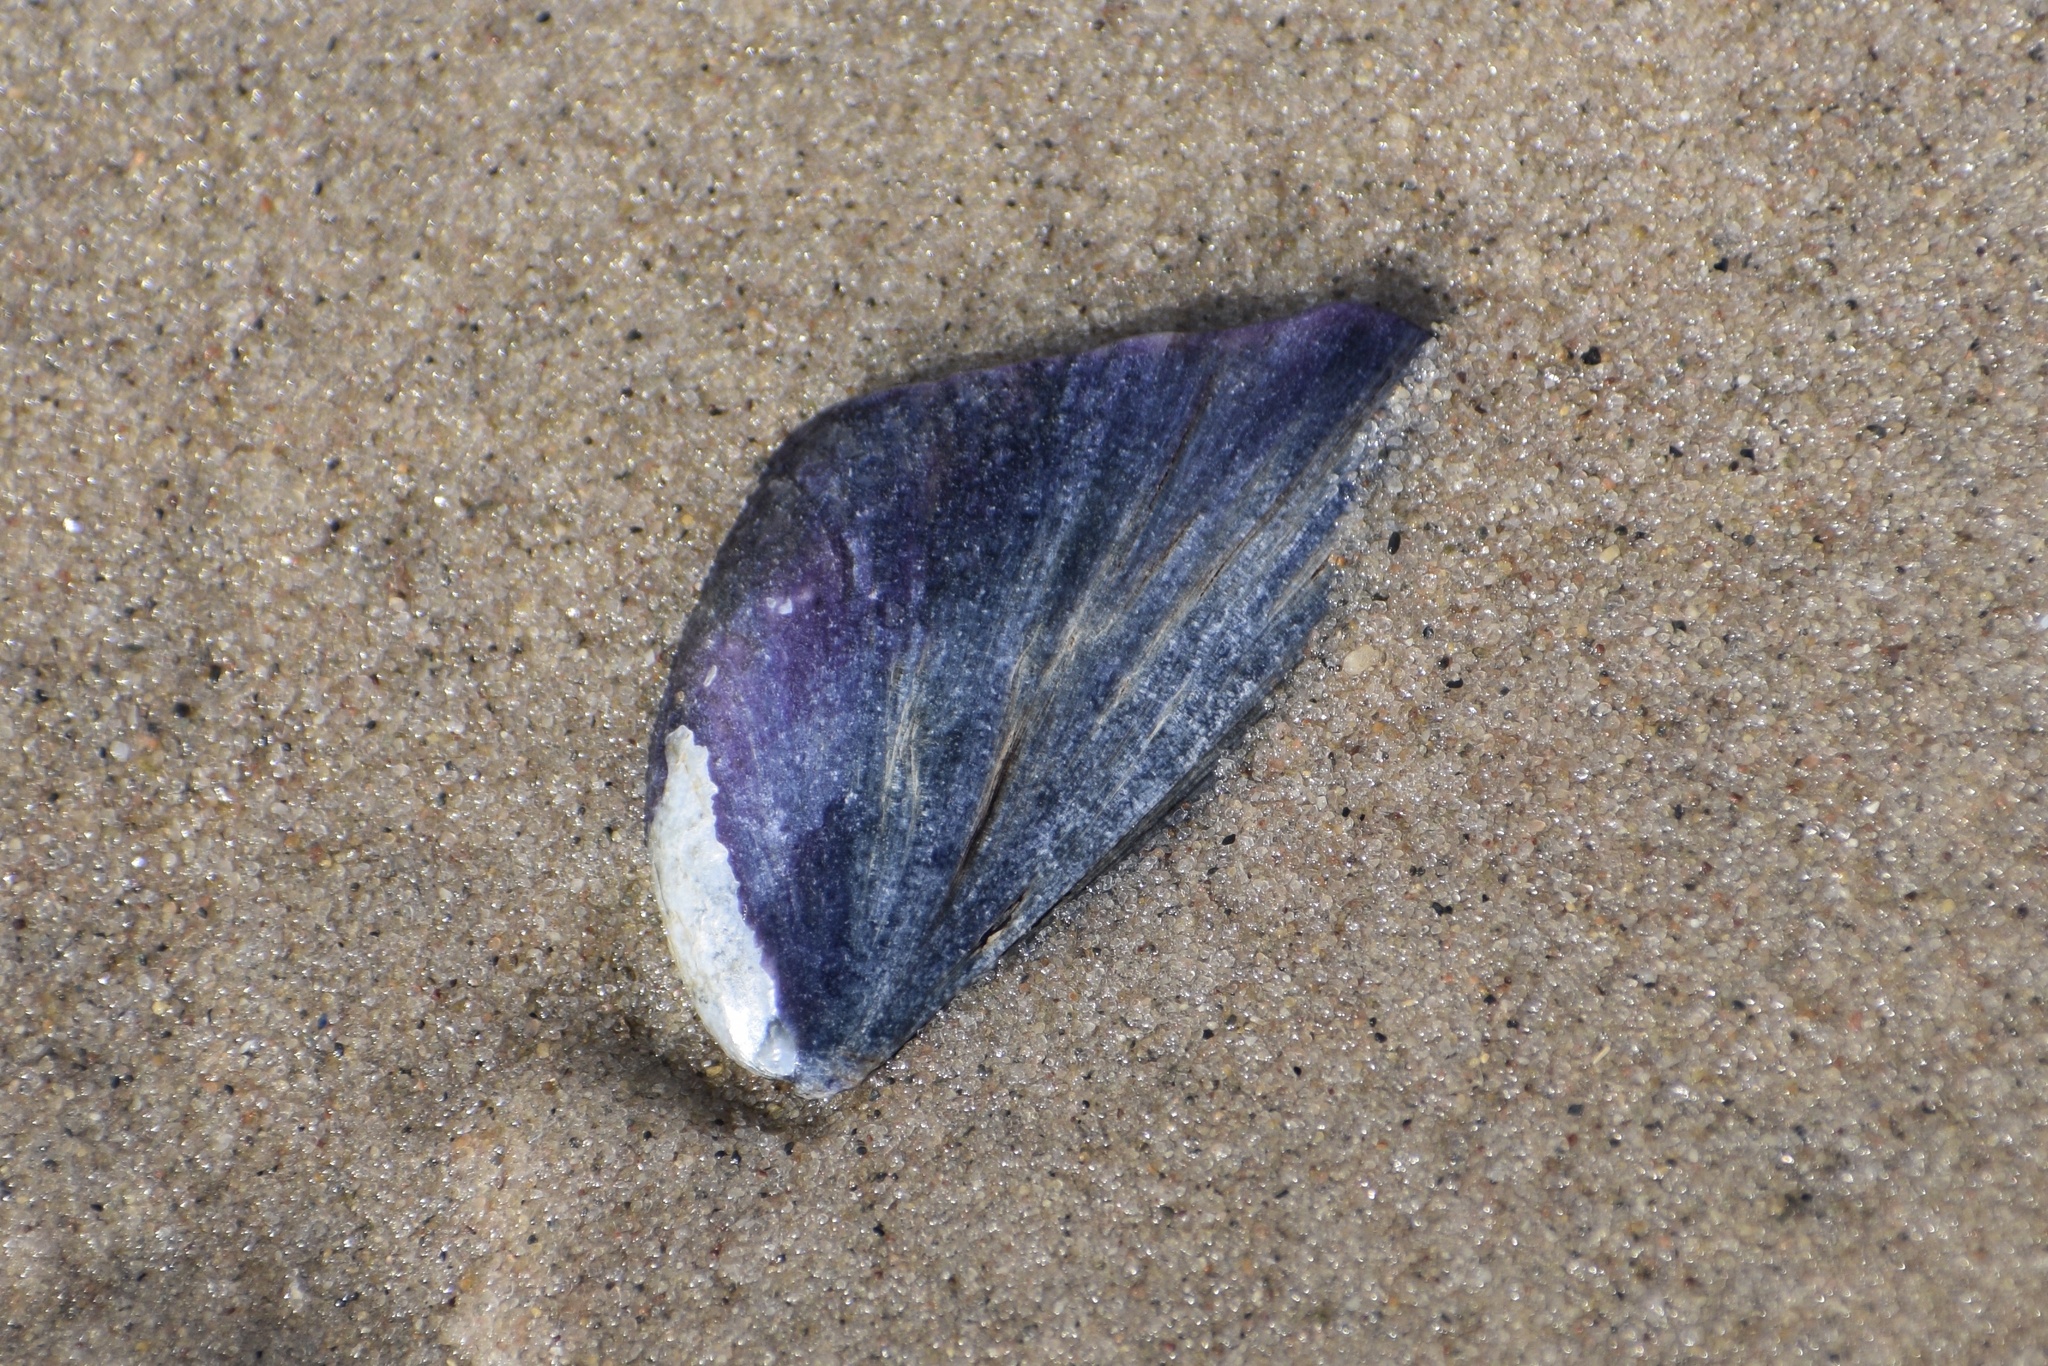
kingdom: Animalia
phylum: Mollusca
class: Bivalvia
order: Mytilida
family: Mytilidae
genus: Mytilus
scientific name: Mytilus edulis
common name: Blue mussel
